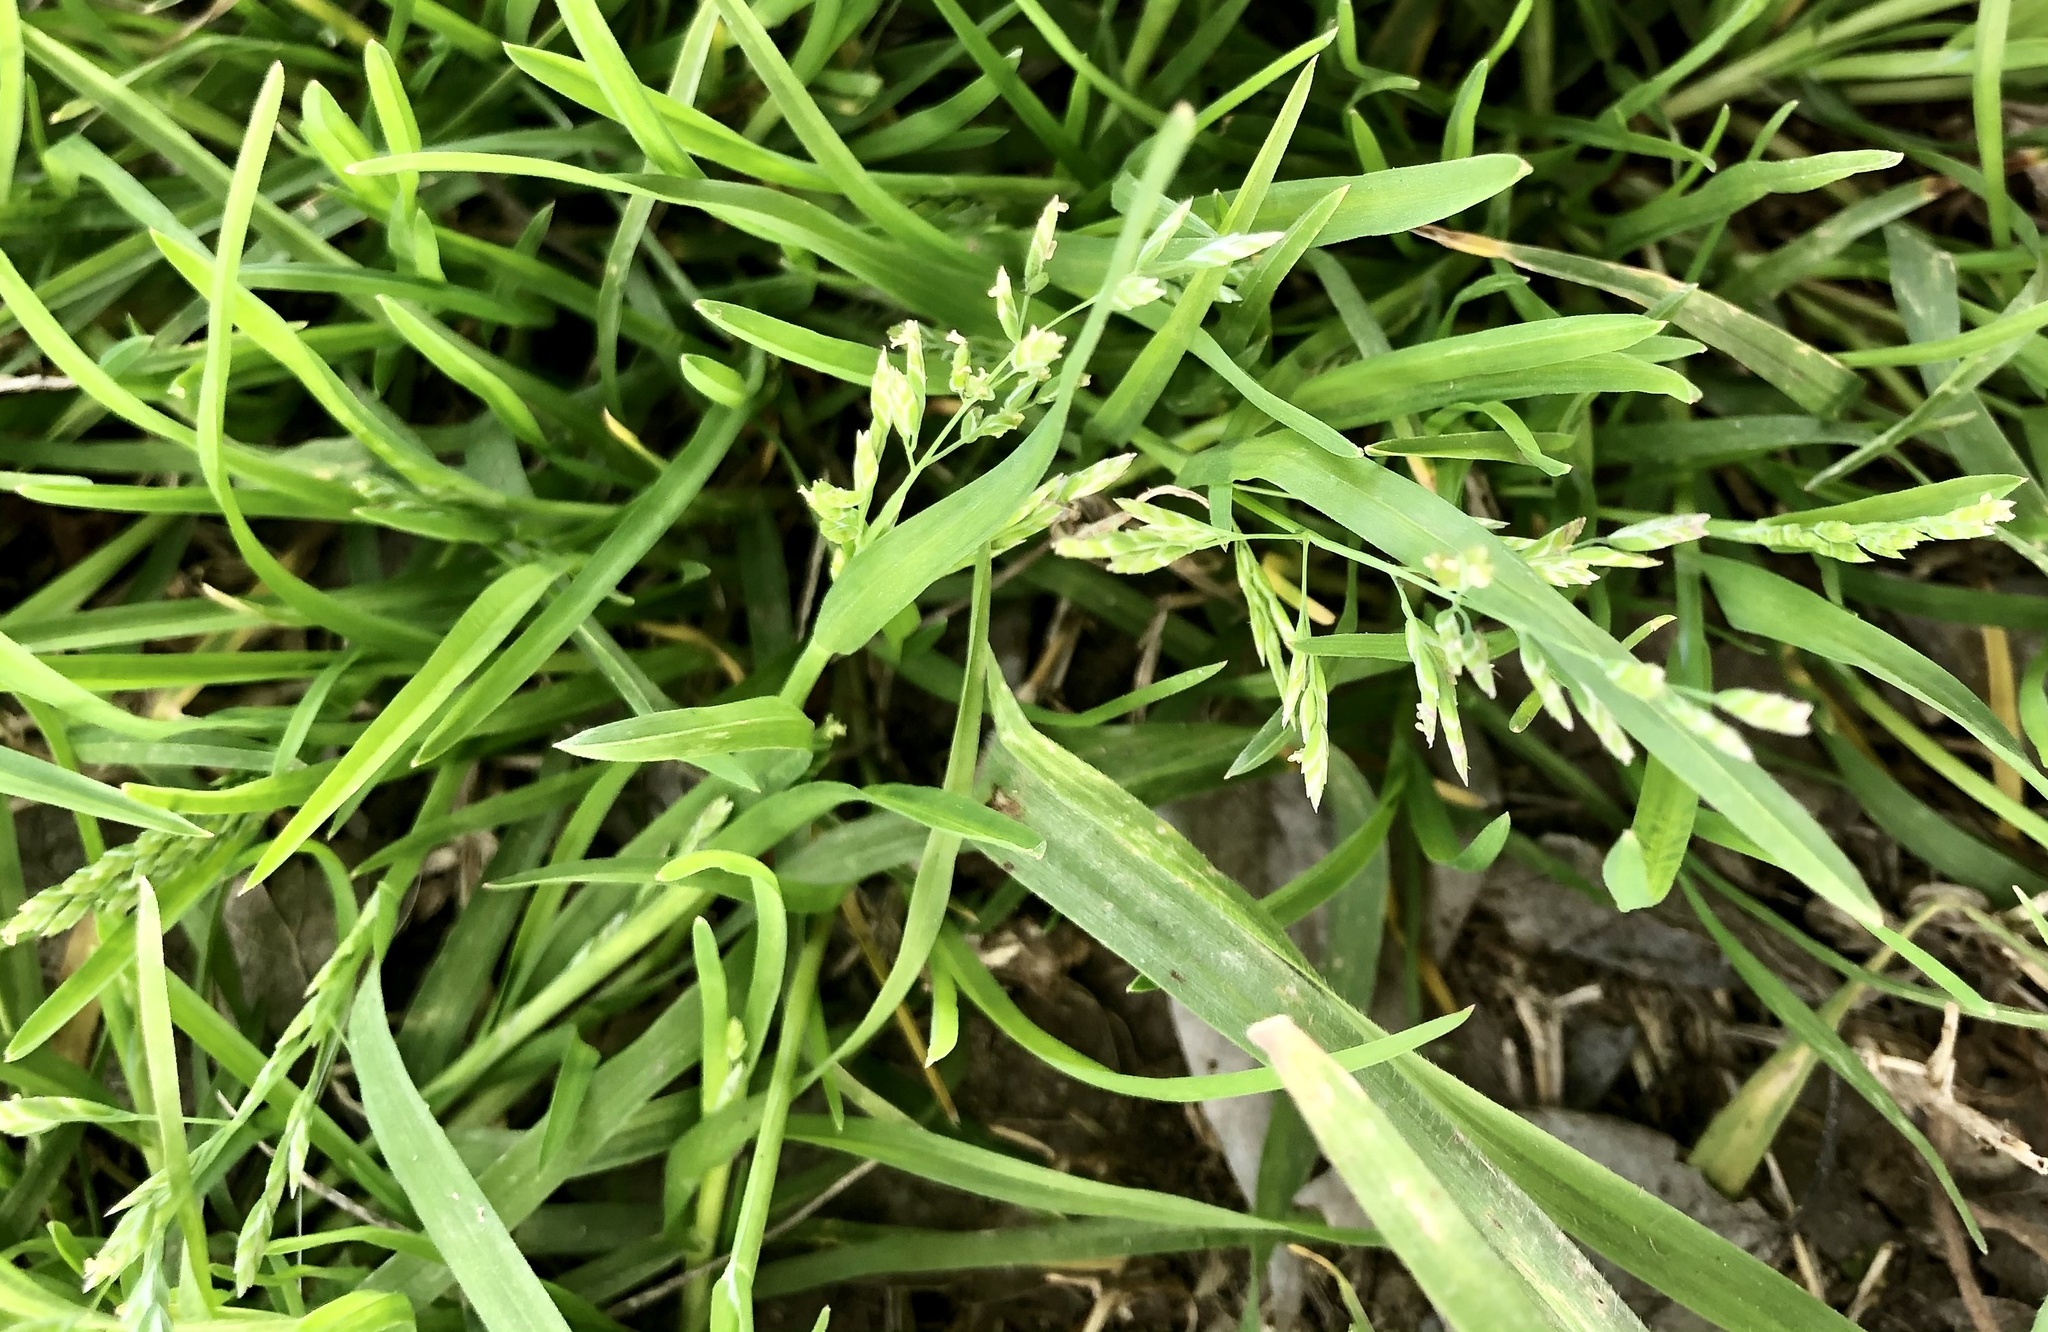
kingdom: Plantae
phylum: Tracheophyta
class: Liliopsida
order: Poales
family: Poaceae
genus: Poa
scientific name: Poa annua
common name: Annual bluegrass
